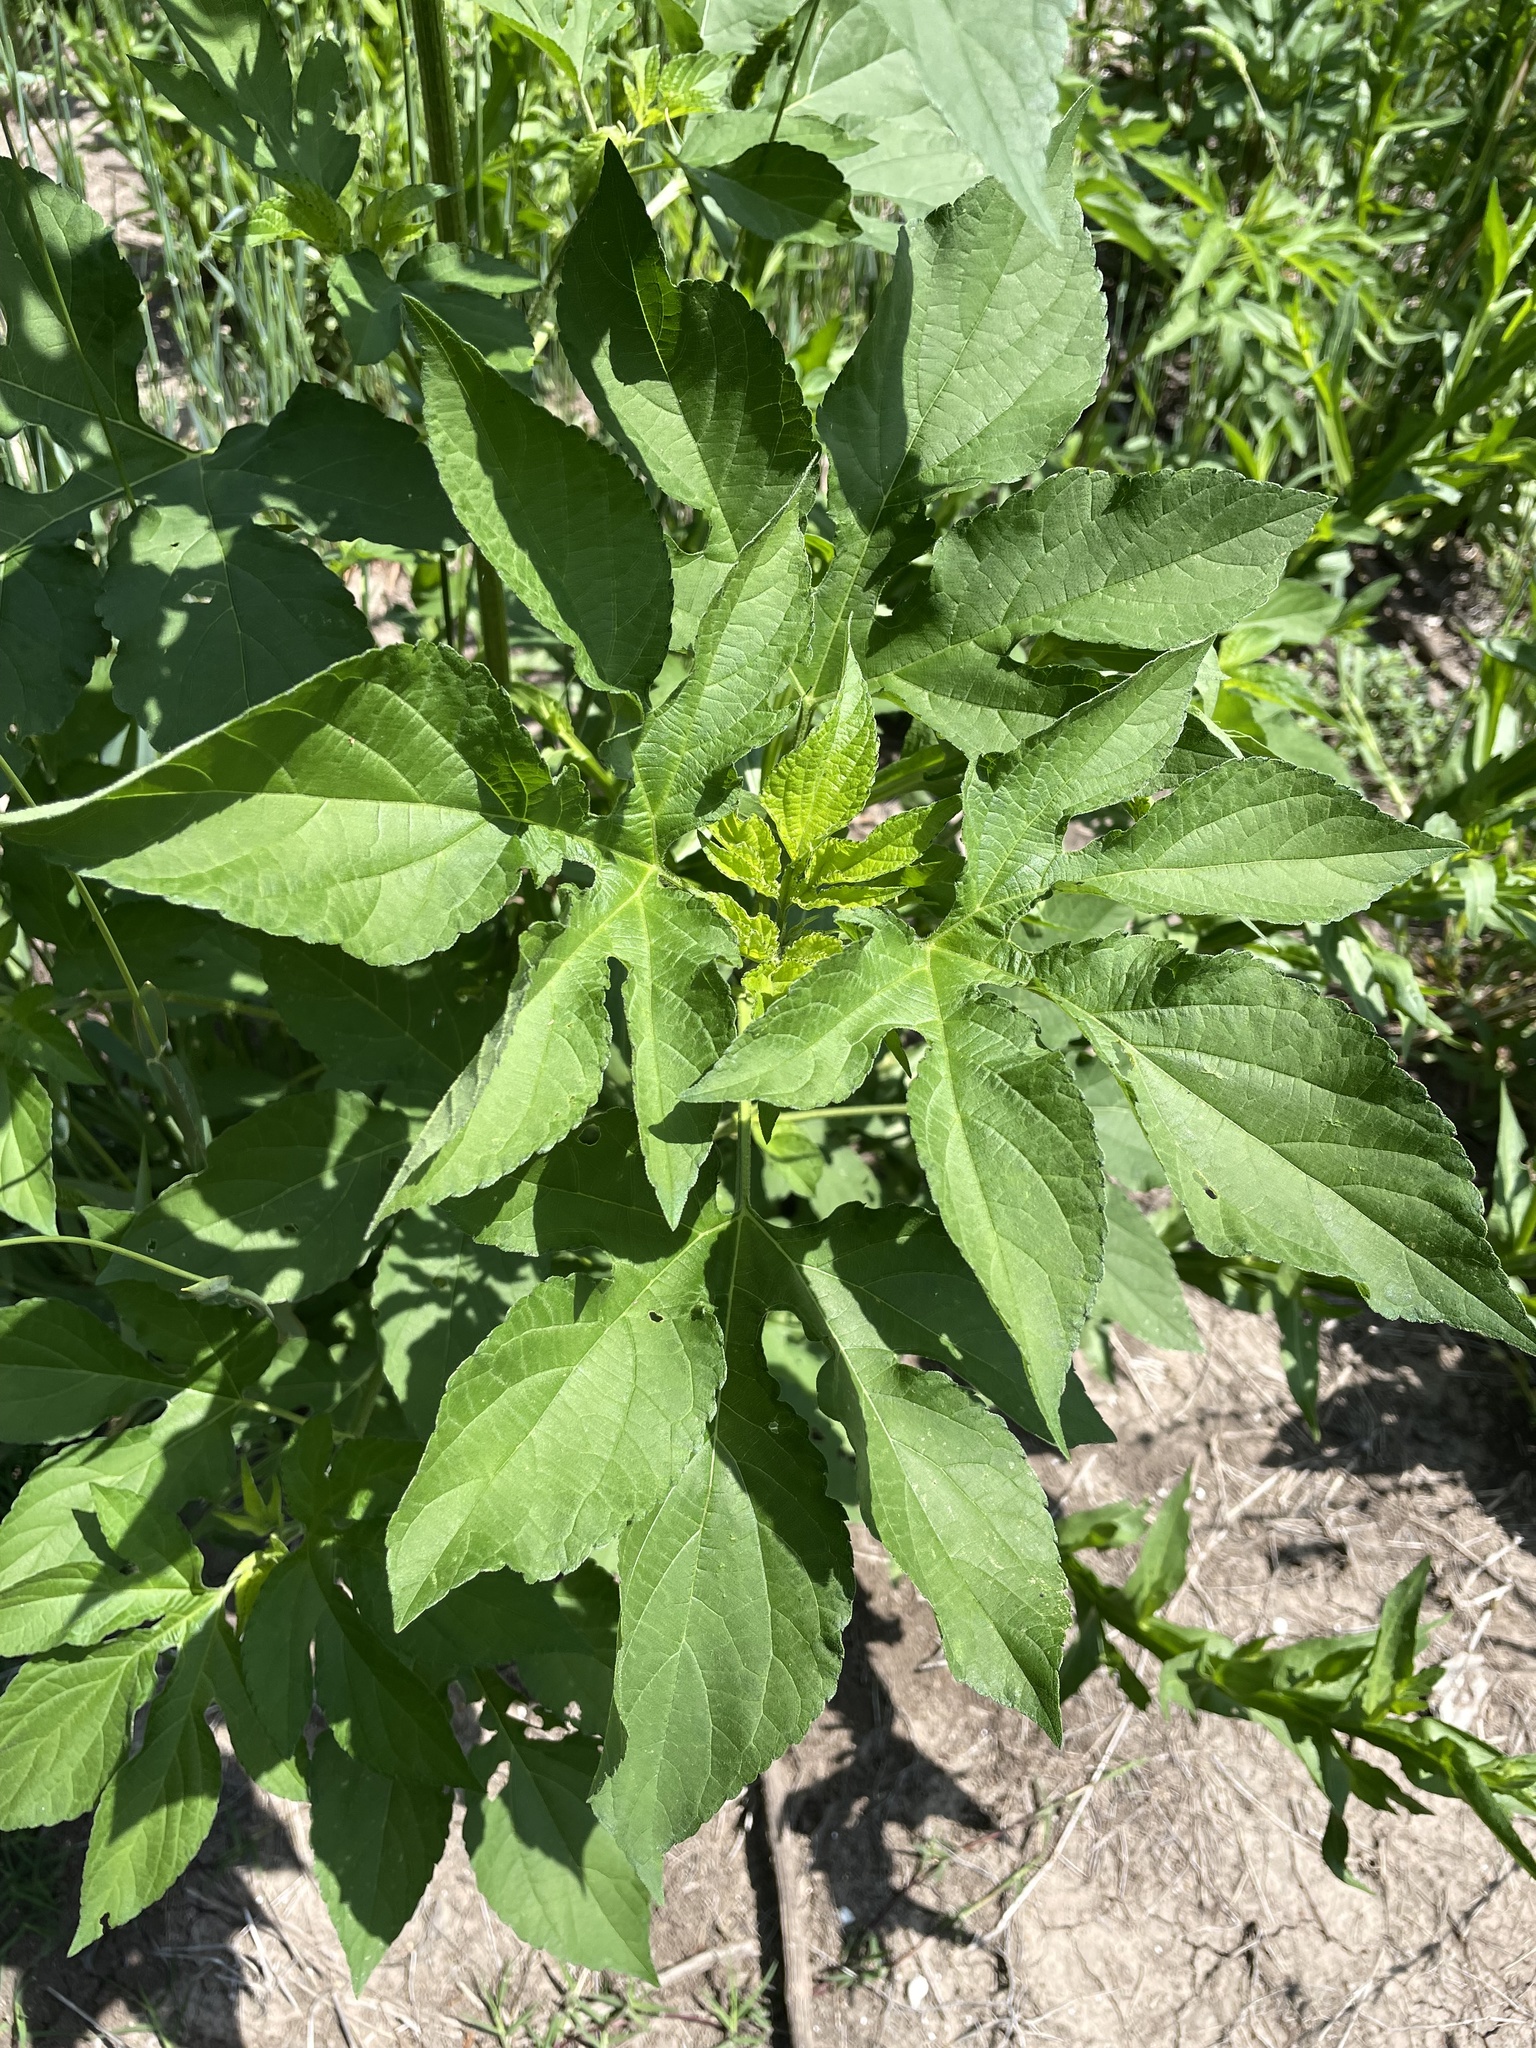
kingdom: Plantae
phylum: Tracheophyta
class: Magnoliopsida
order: Asterales
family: Asteraceae
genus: Ambrosia
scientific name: Ambrosia trifida
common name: Giant ragweed
